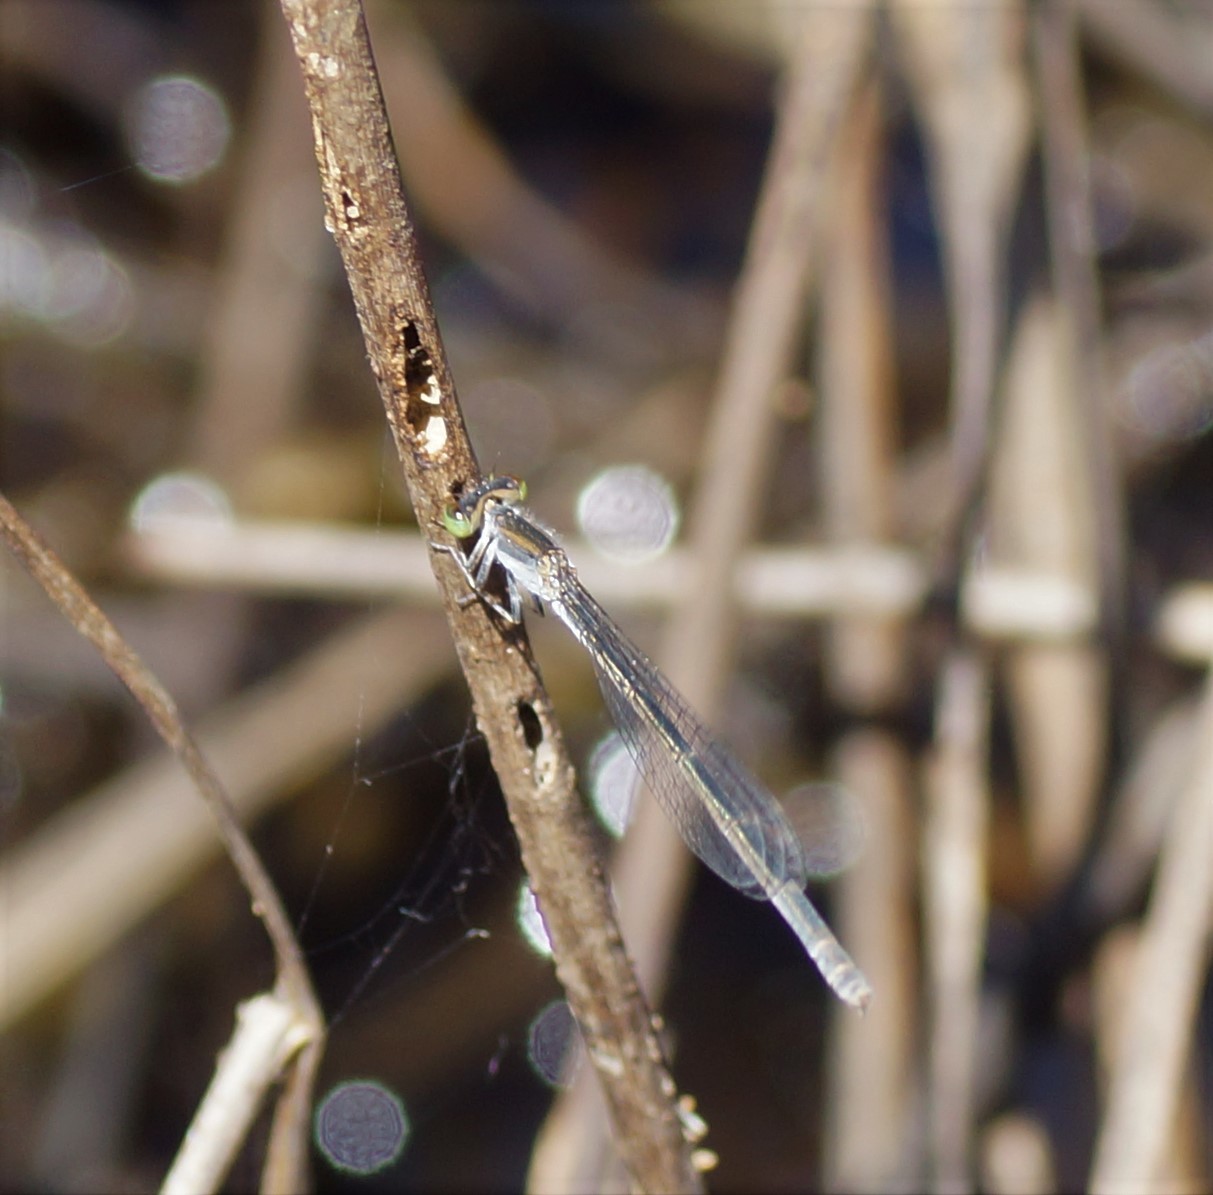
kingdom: Animalia
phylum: Arthropoda
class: Insecta
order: Odonata
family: Coenagrionidae
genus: Ischnura
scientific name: Ischnura aurora
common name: Gossamer damselfly
